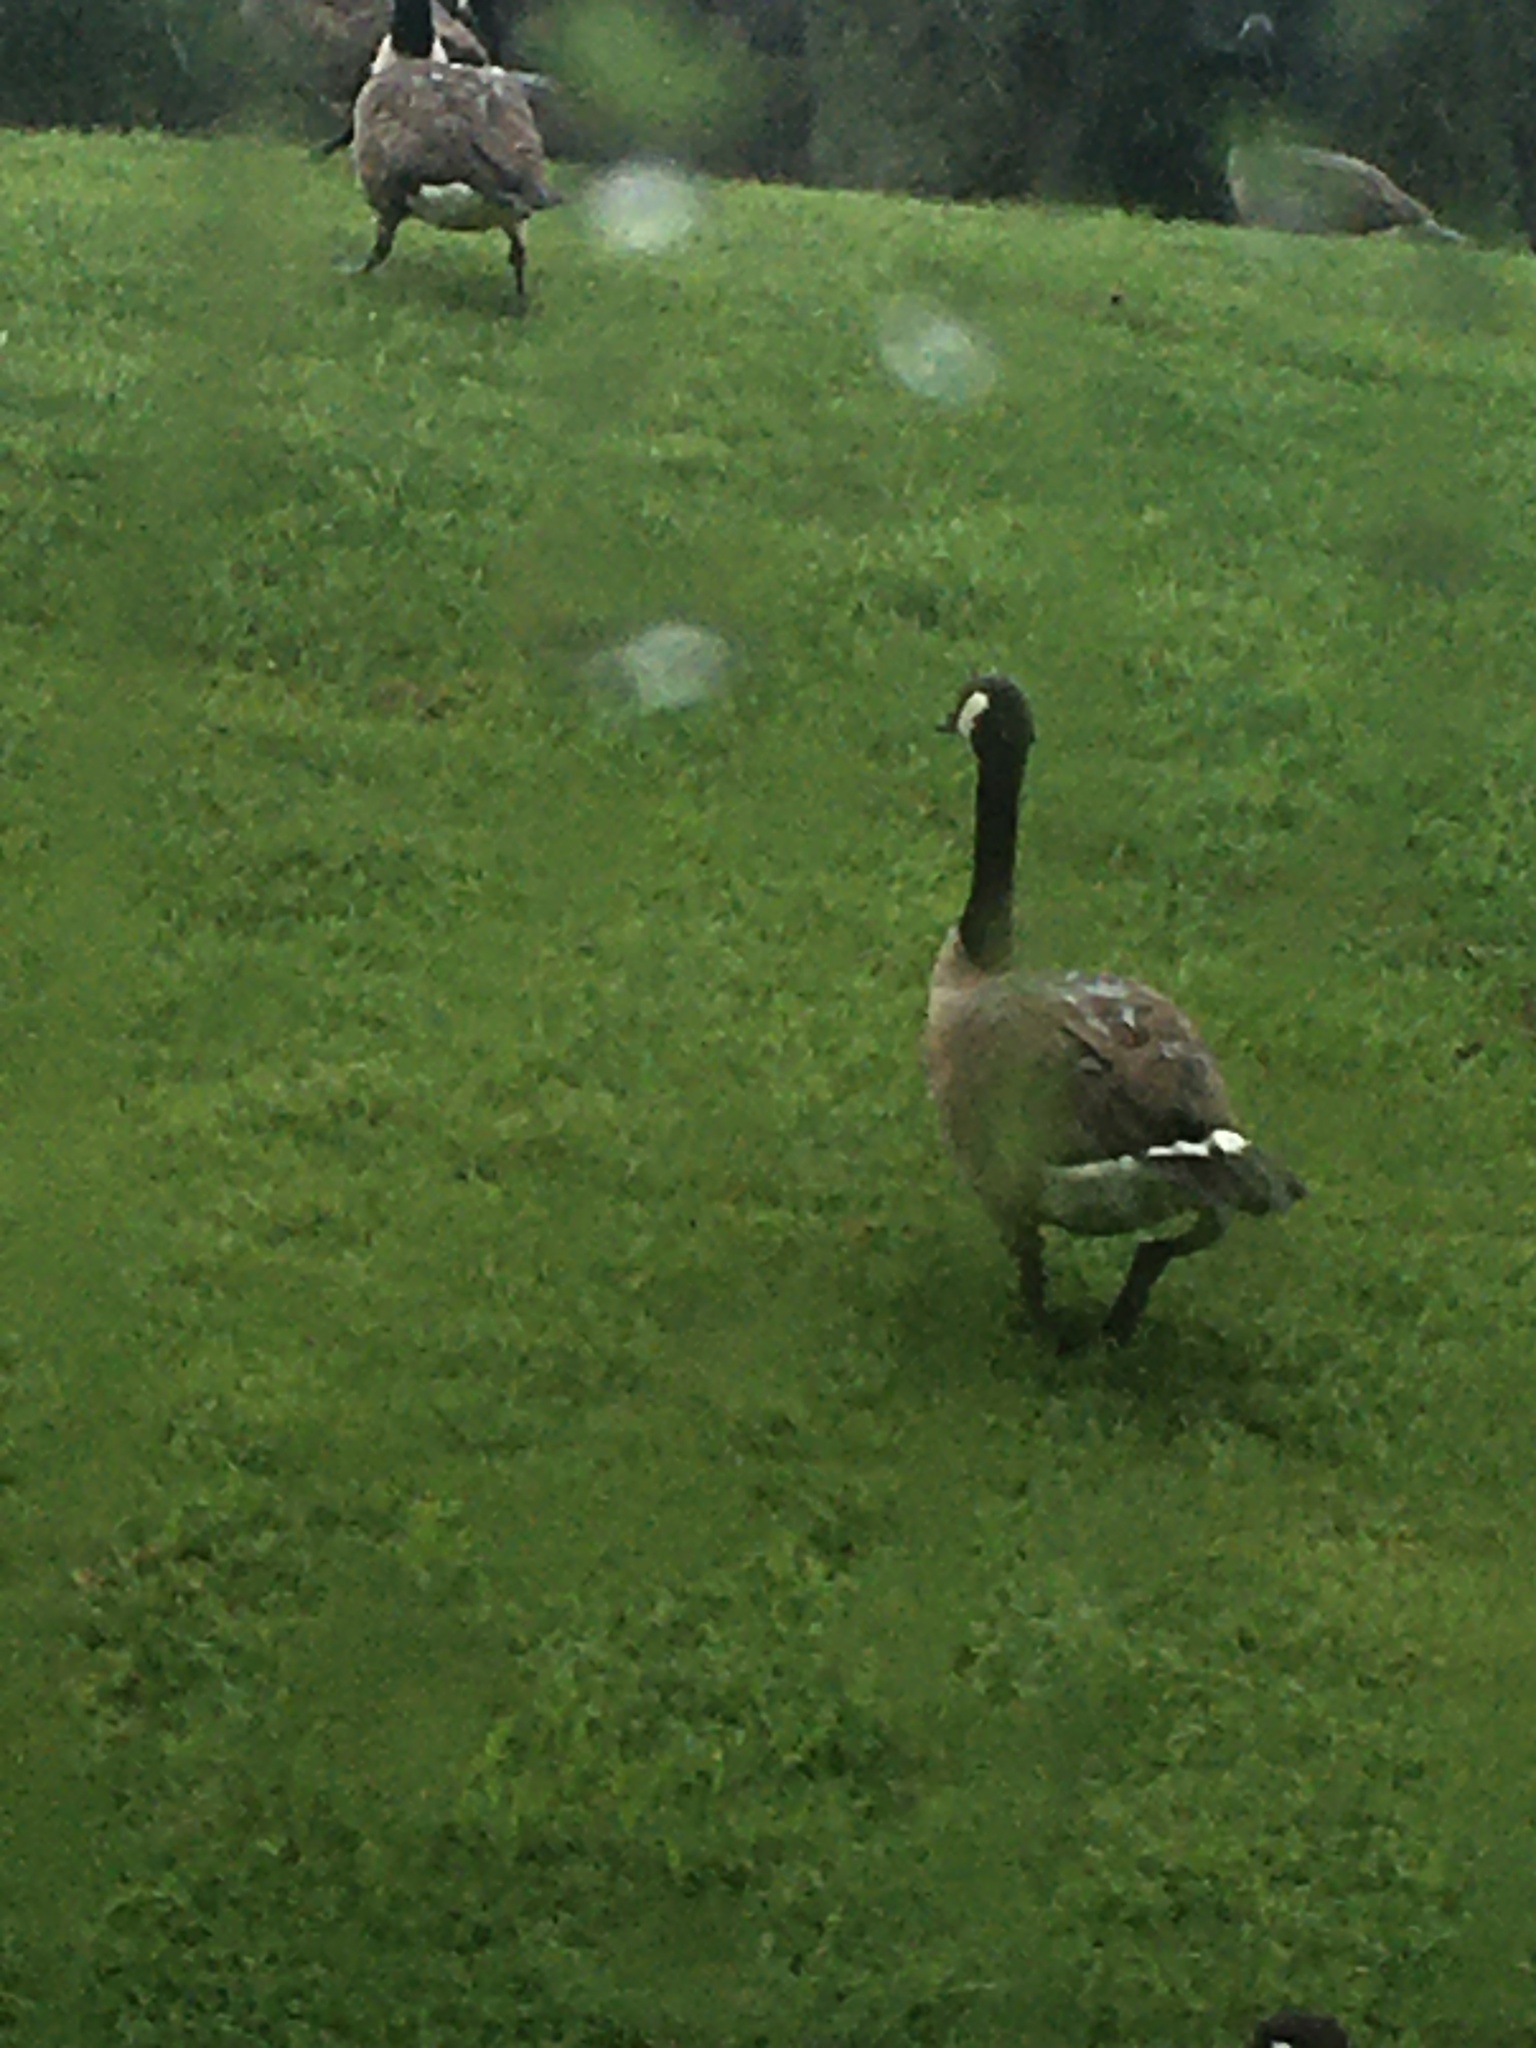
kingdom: Animalia
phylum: Chordata
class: Aves
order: Anseriformes
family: Anatidae
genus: Branta
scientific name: Branta canadensis
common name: Canada goose
